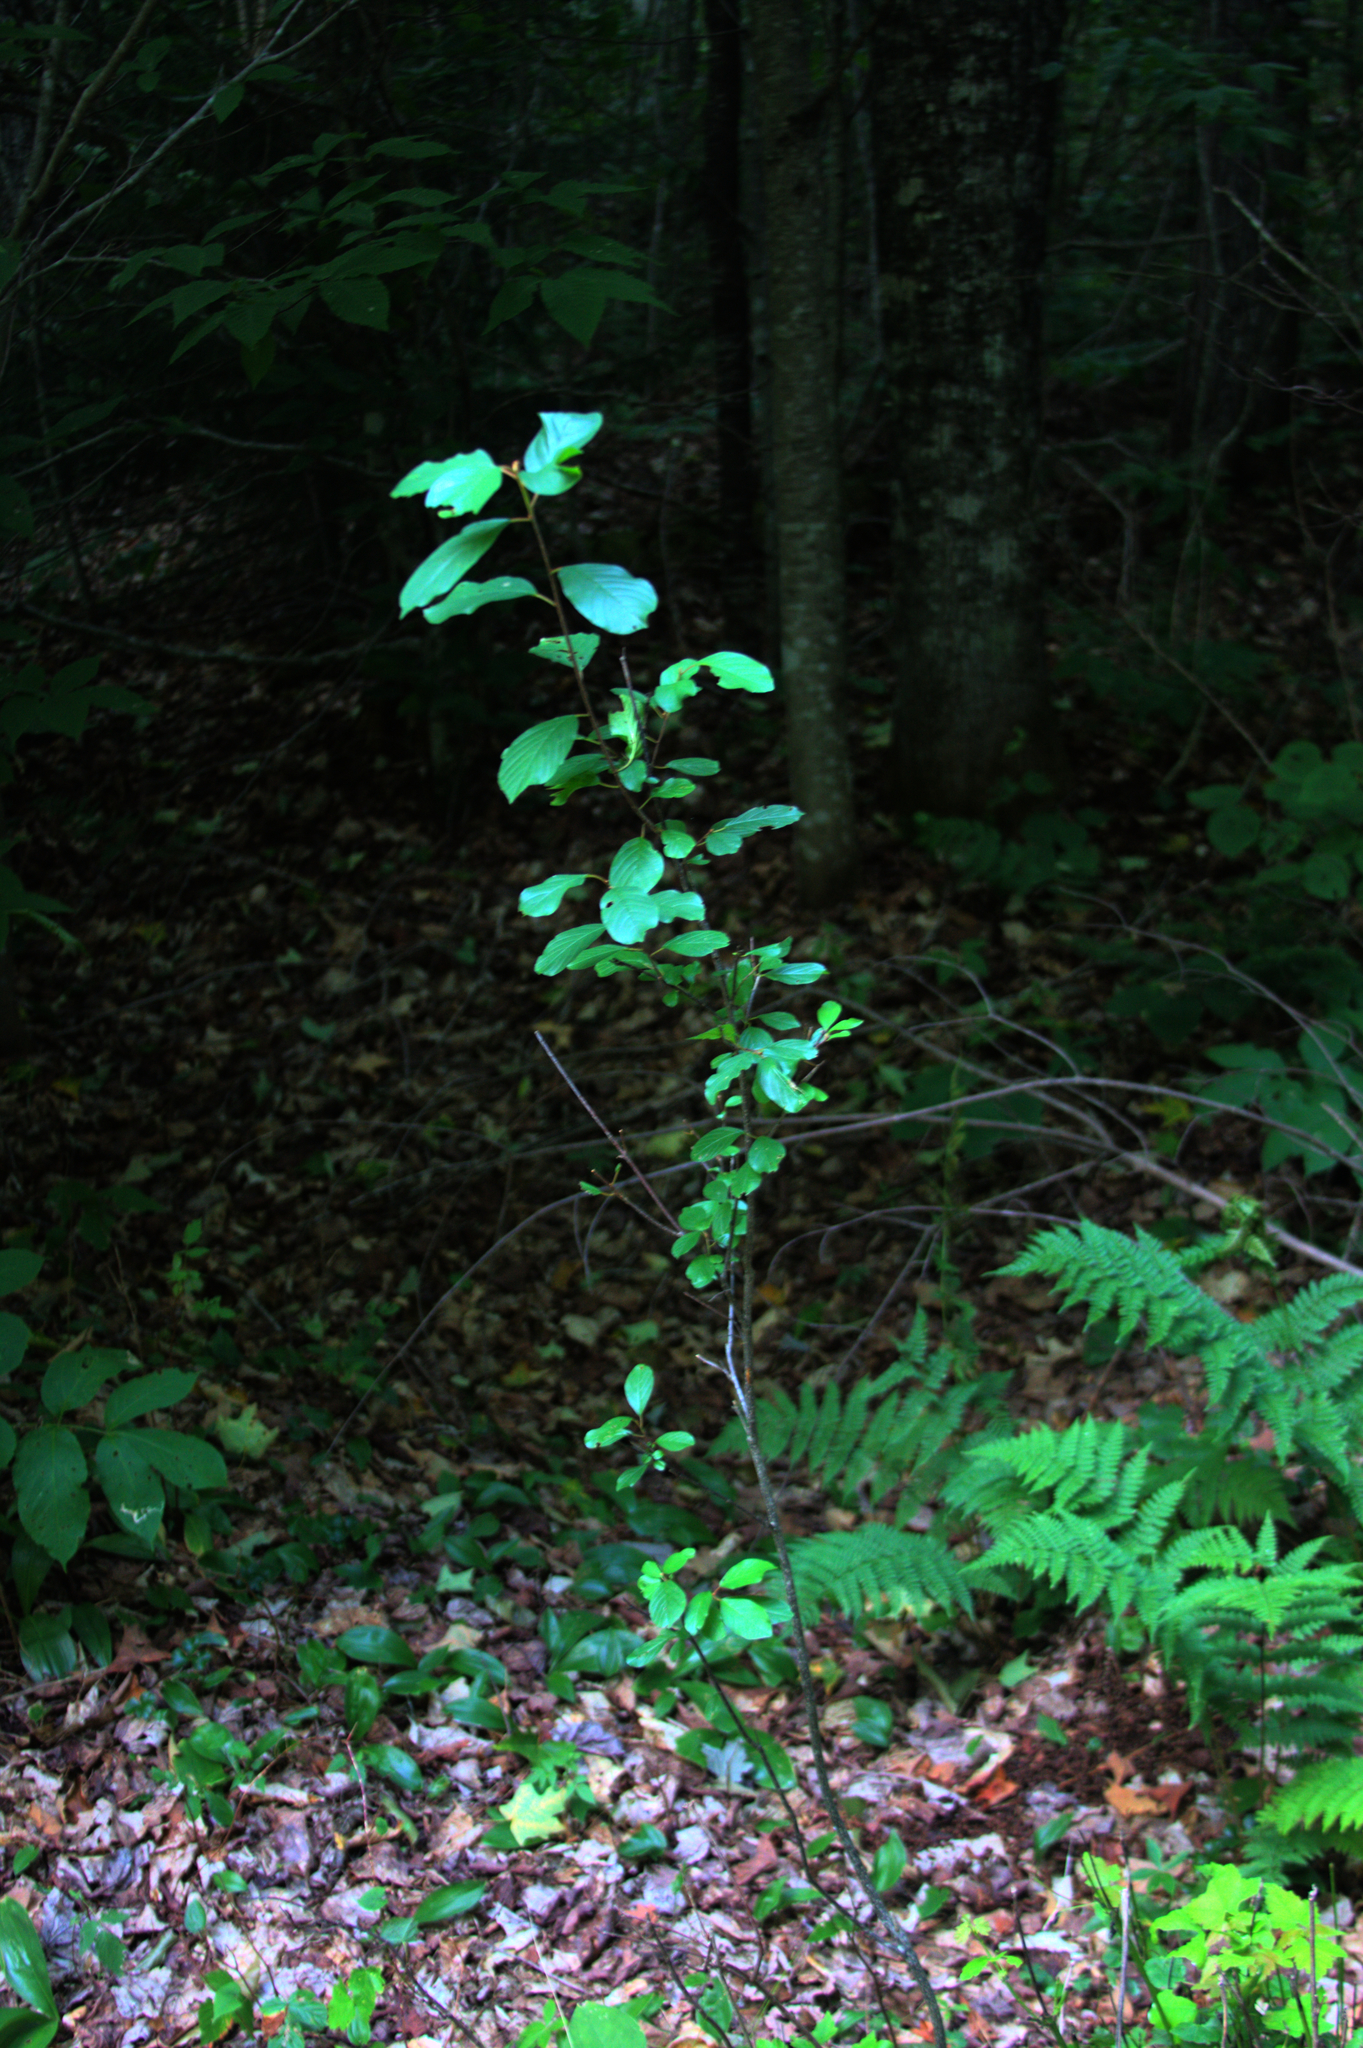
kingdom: Plantae
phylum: Tracheophyta
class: Magnoliopsida
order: Rosales
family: Rhamnaceae
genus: Frangula
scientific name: Frangula alnus
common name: Alder buckthorn
